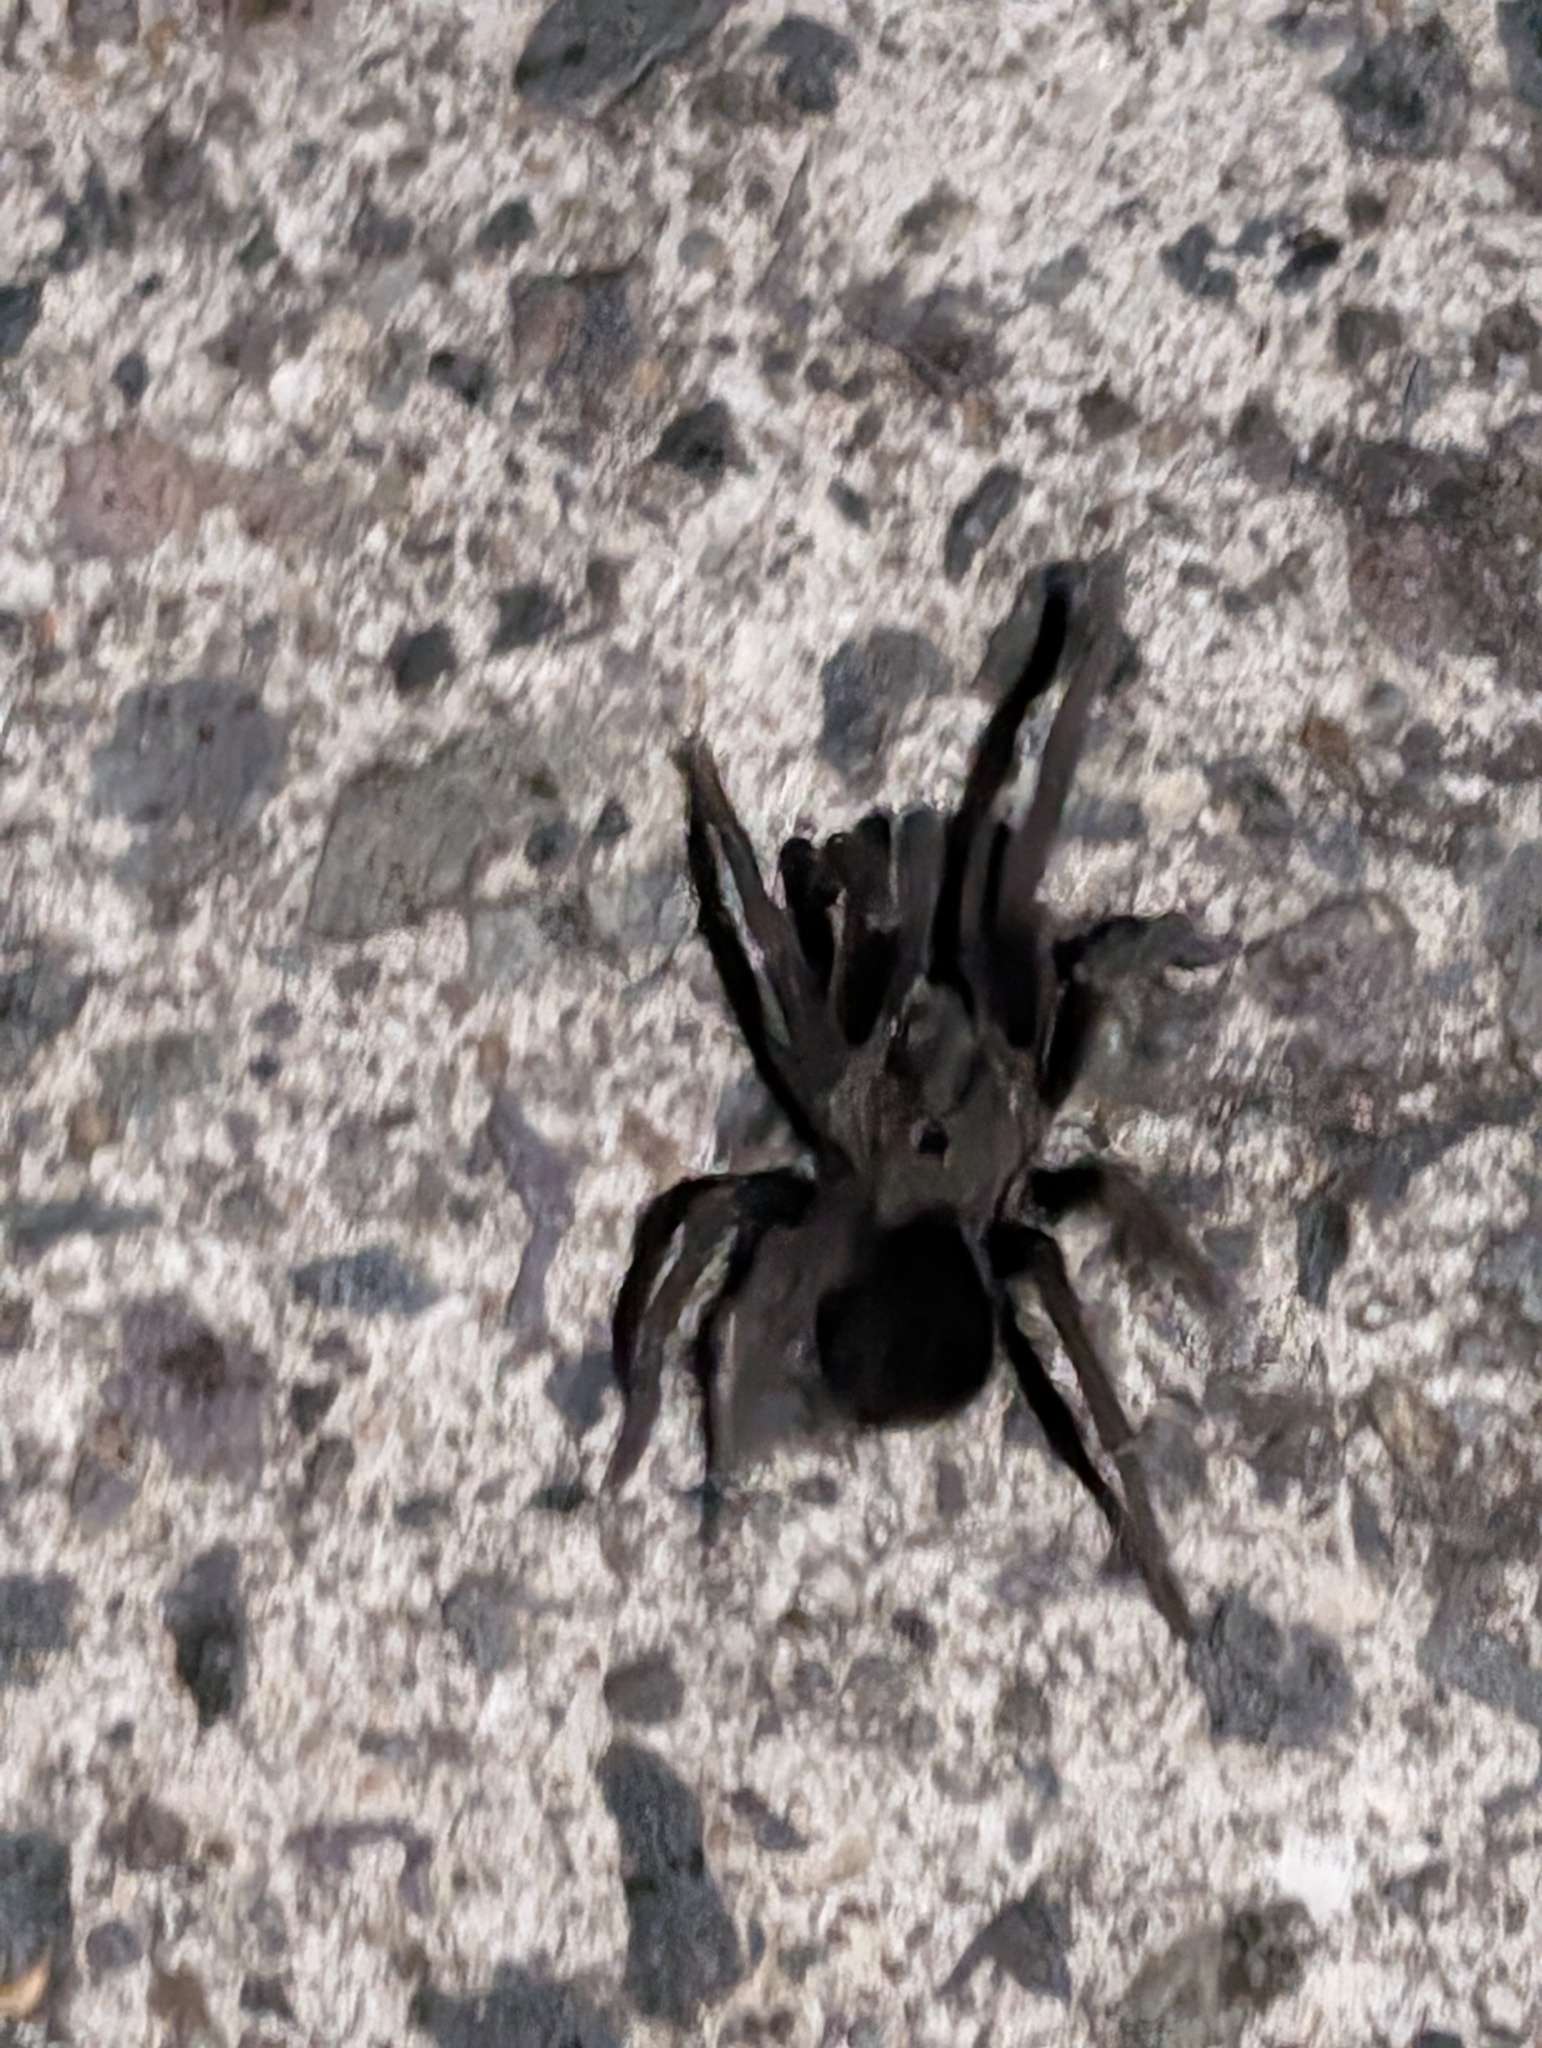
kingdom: Animalia
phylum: Arthropoda
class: Arachnida
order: Araneae
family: Theraphosidae
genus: Sphaerobothria
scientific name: Sphaerobothria hoffmanni
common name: Tarantula spiders
